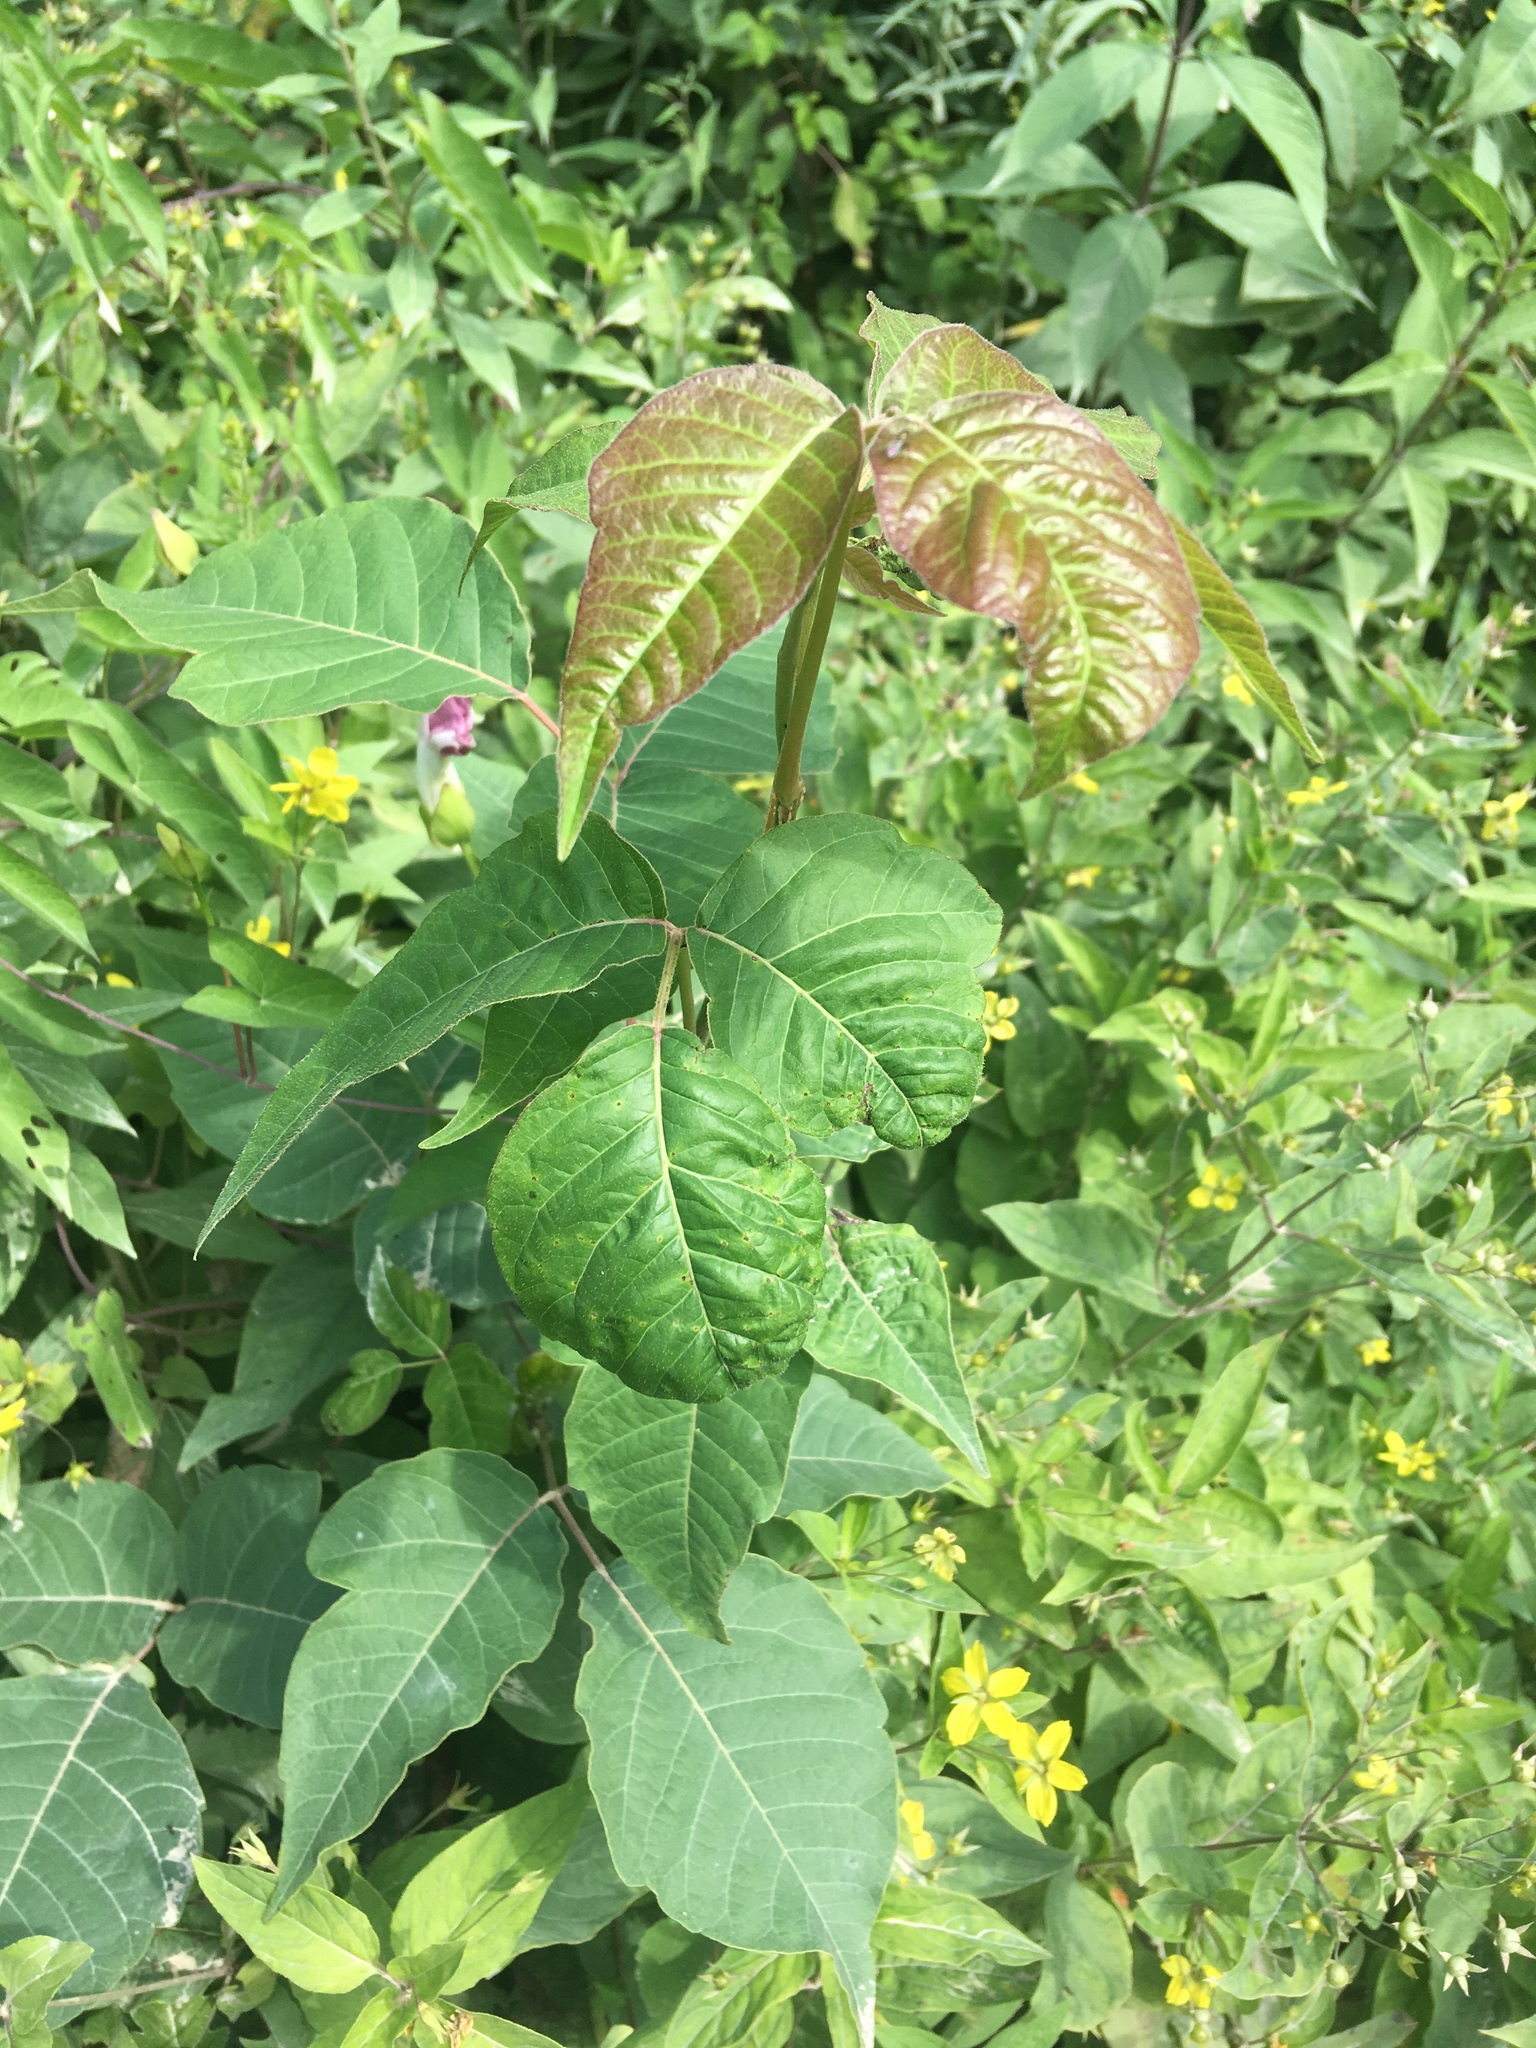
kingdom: Plantae
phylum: Tracheophyta
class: Magnoliopsida
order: Sapindales
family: Anacardiaceae
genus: Toxicodendron
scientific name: Toxicodendron radicans
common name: Poison ivy
